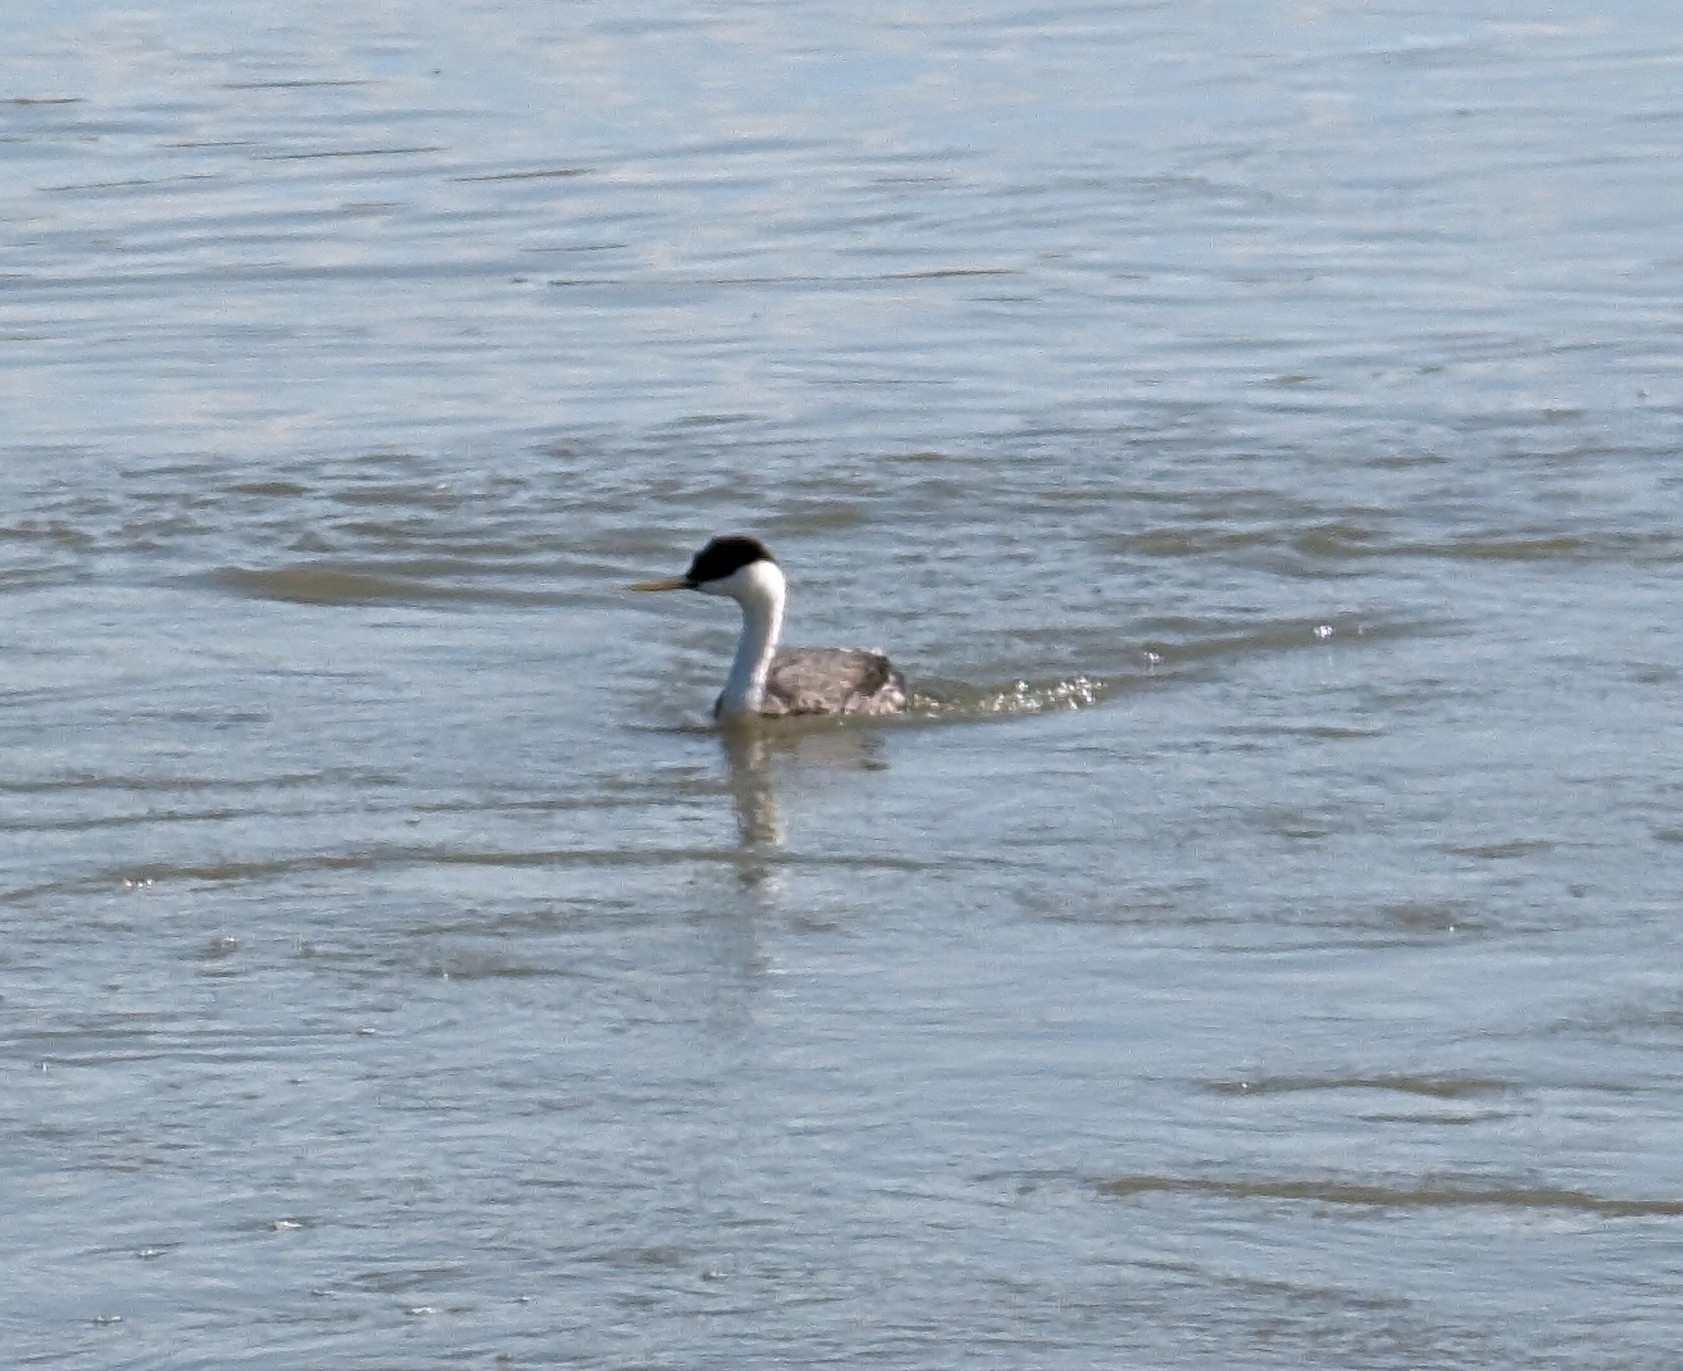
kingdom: Animalia
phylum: Chordata
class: Aves
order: Podicipediformes
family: Podicipedidae
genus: Aechmophorus
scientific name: Aechmophorus occidentalis
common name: Western grebe
